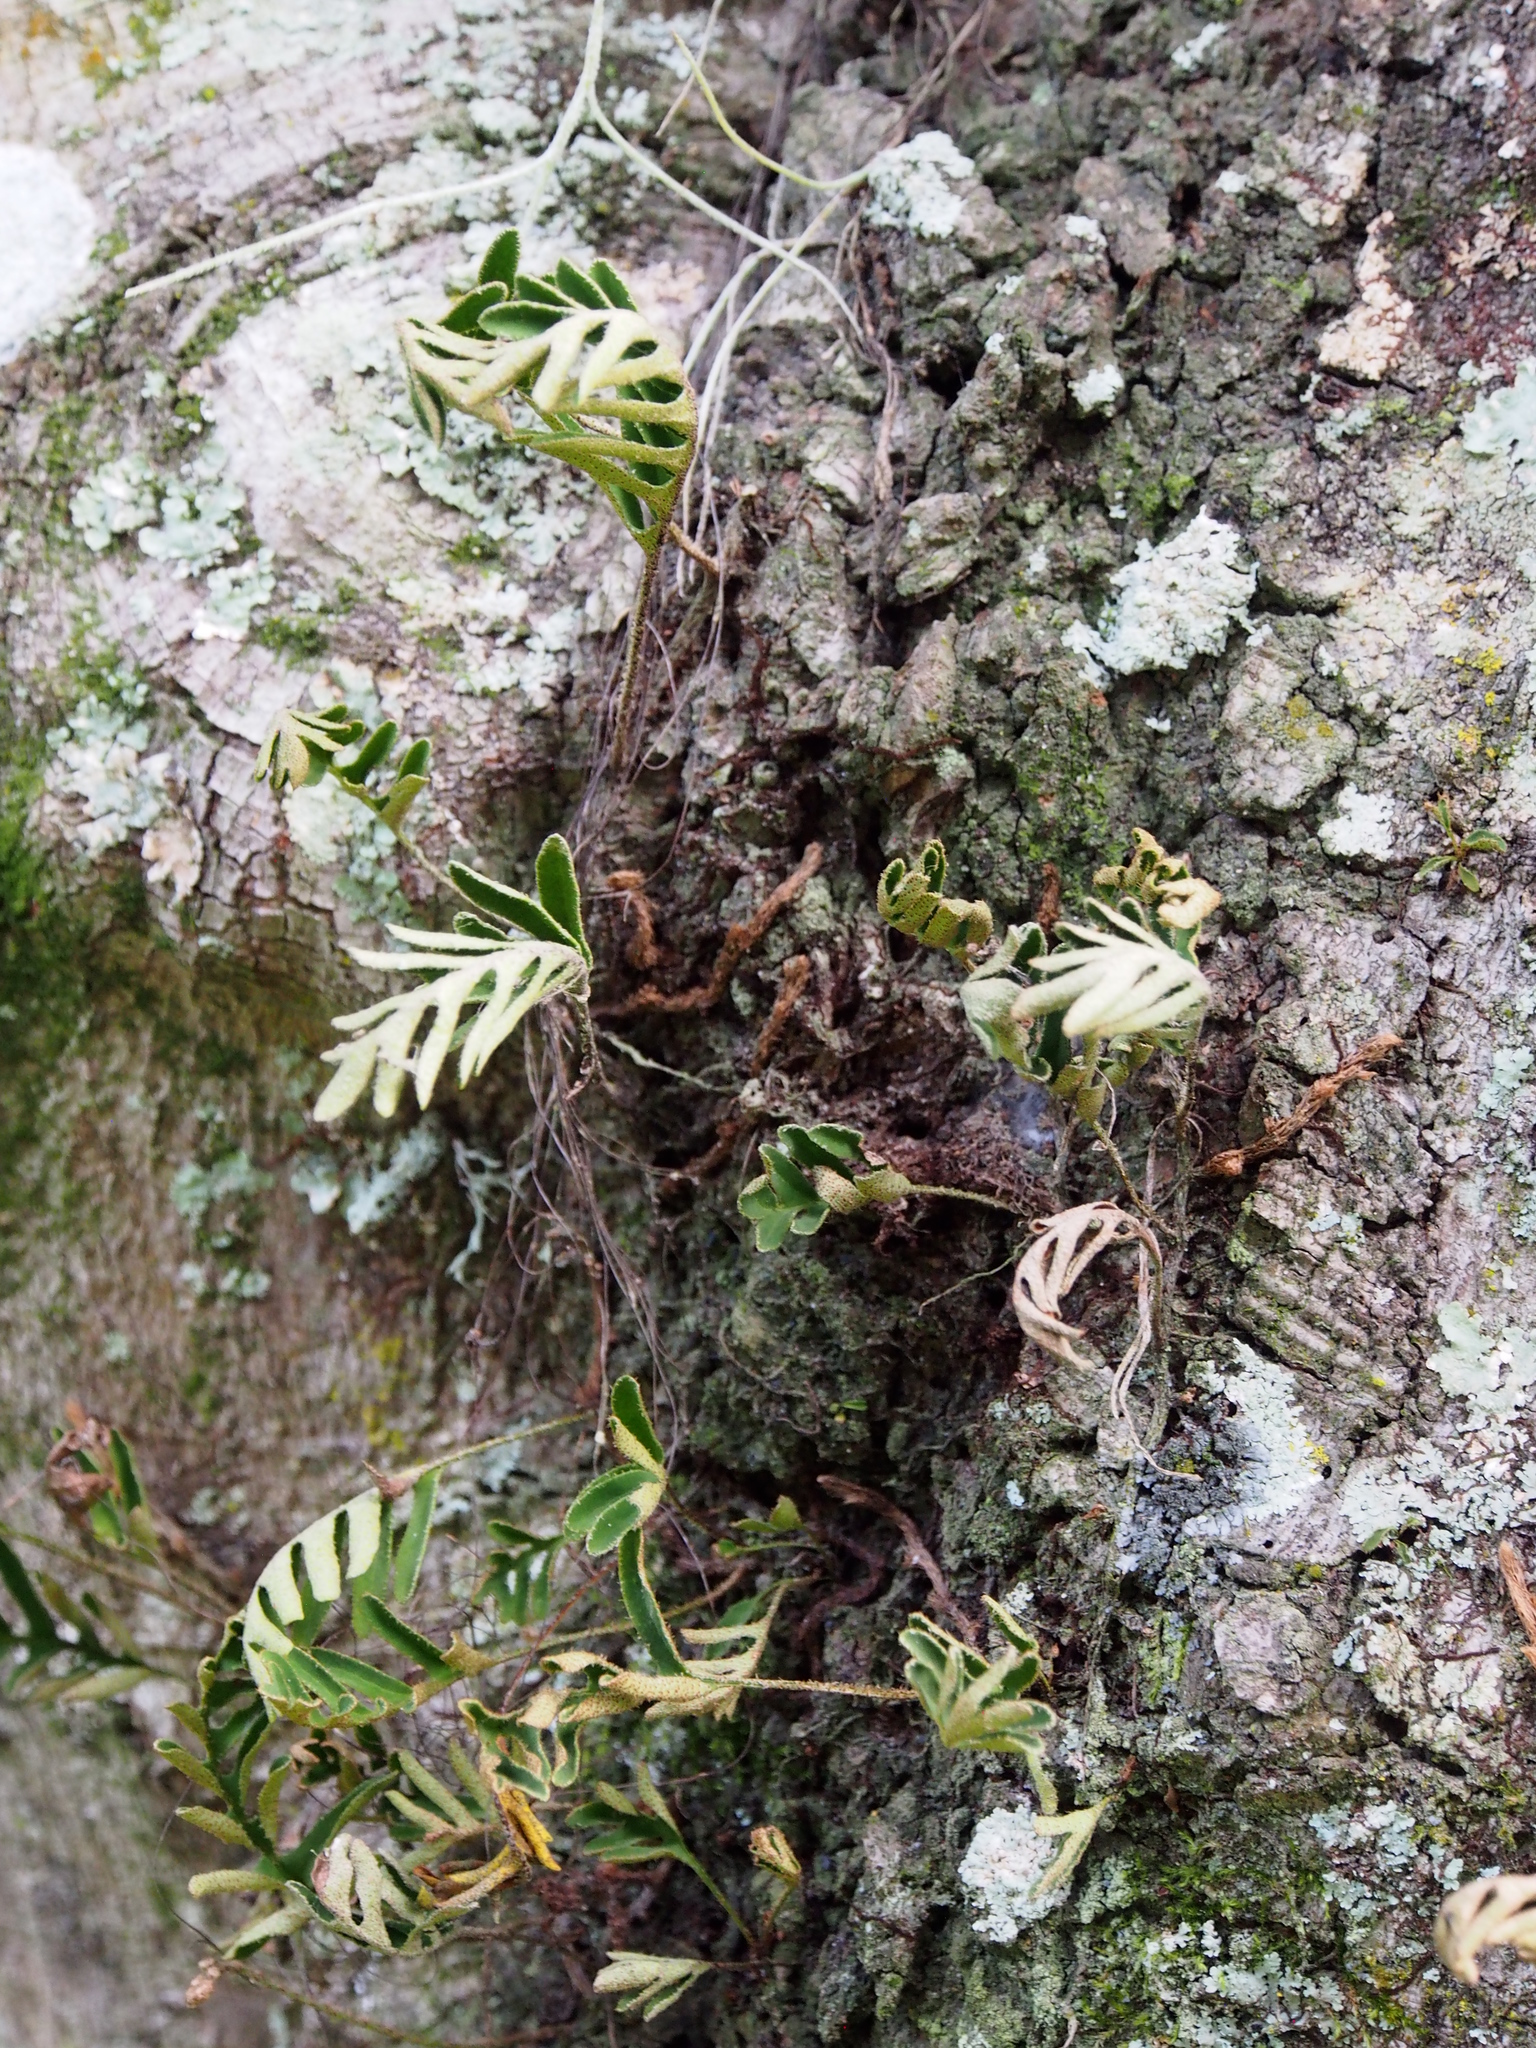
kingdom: Plantae
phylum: Tracheophyta
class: Polypodiopsida
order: Polypodiales
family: Polypodiaceae
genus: Pleopeltis
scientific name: Pleopeltis michauxiana
